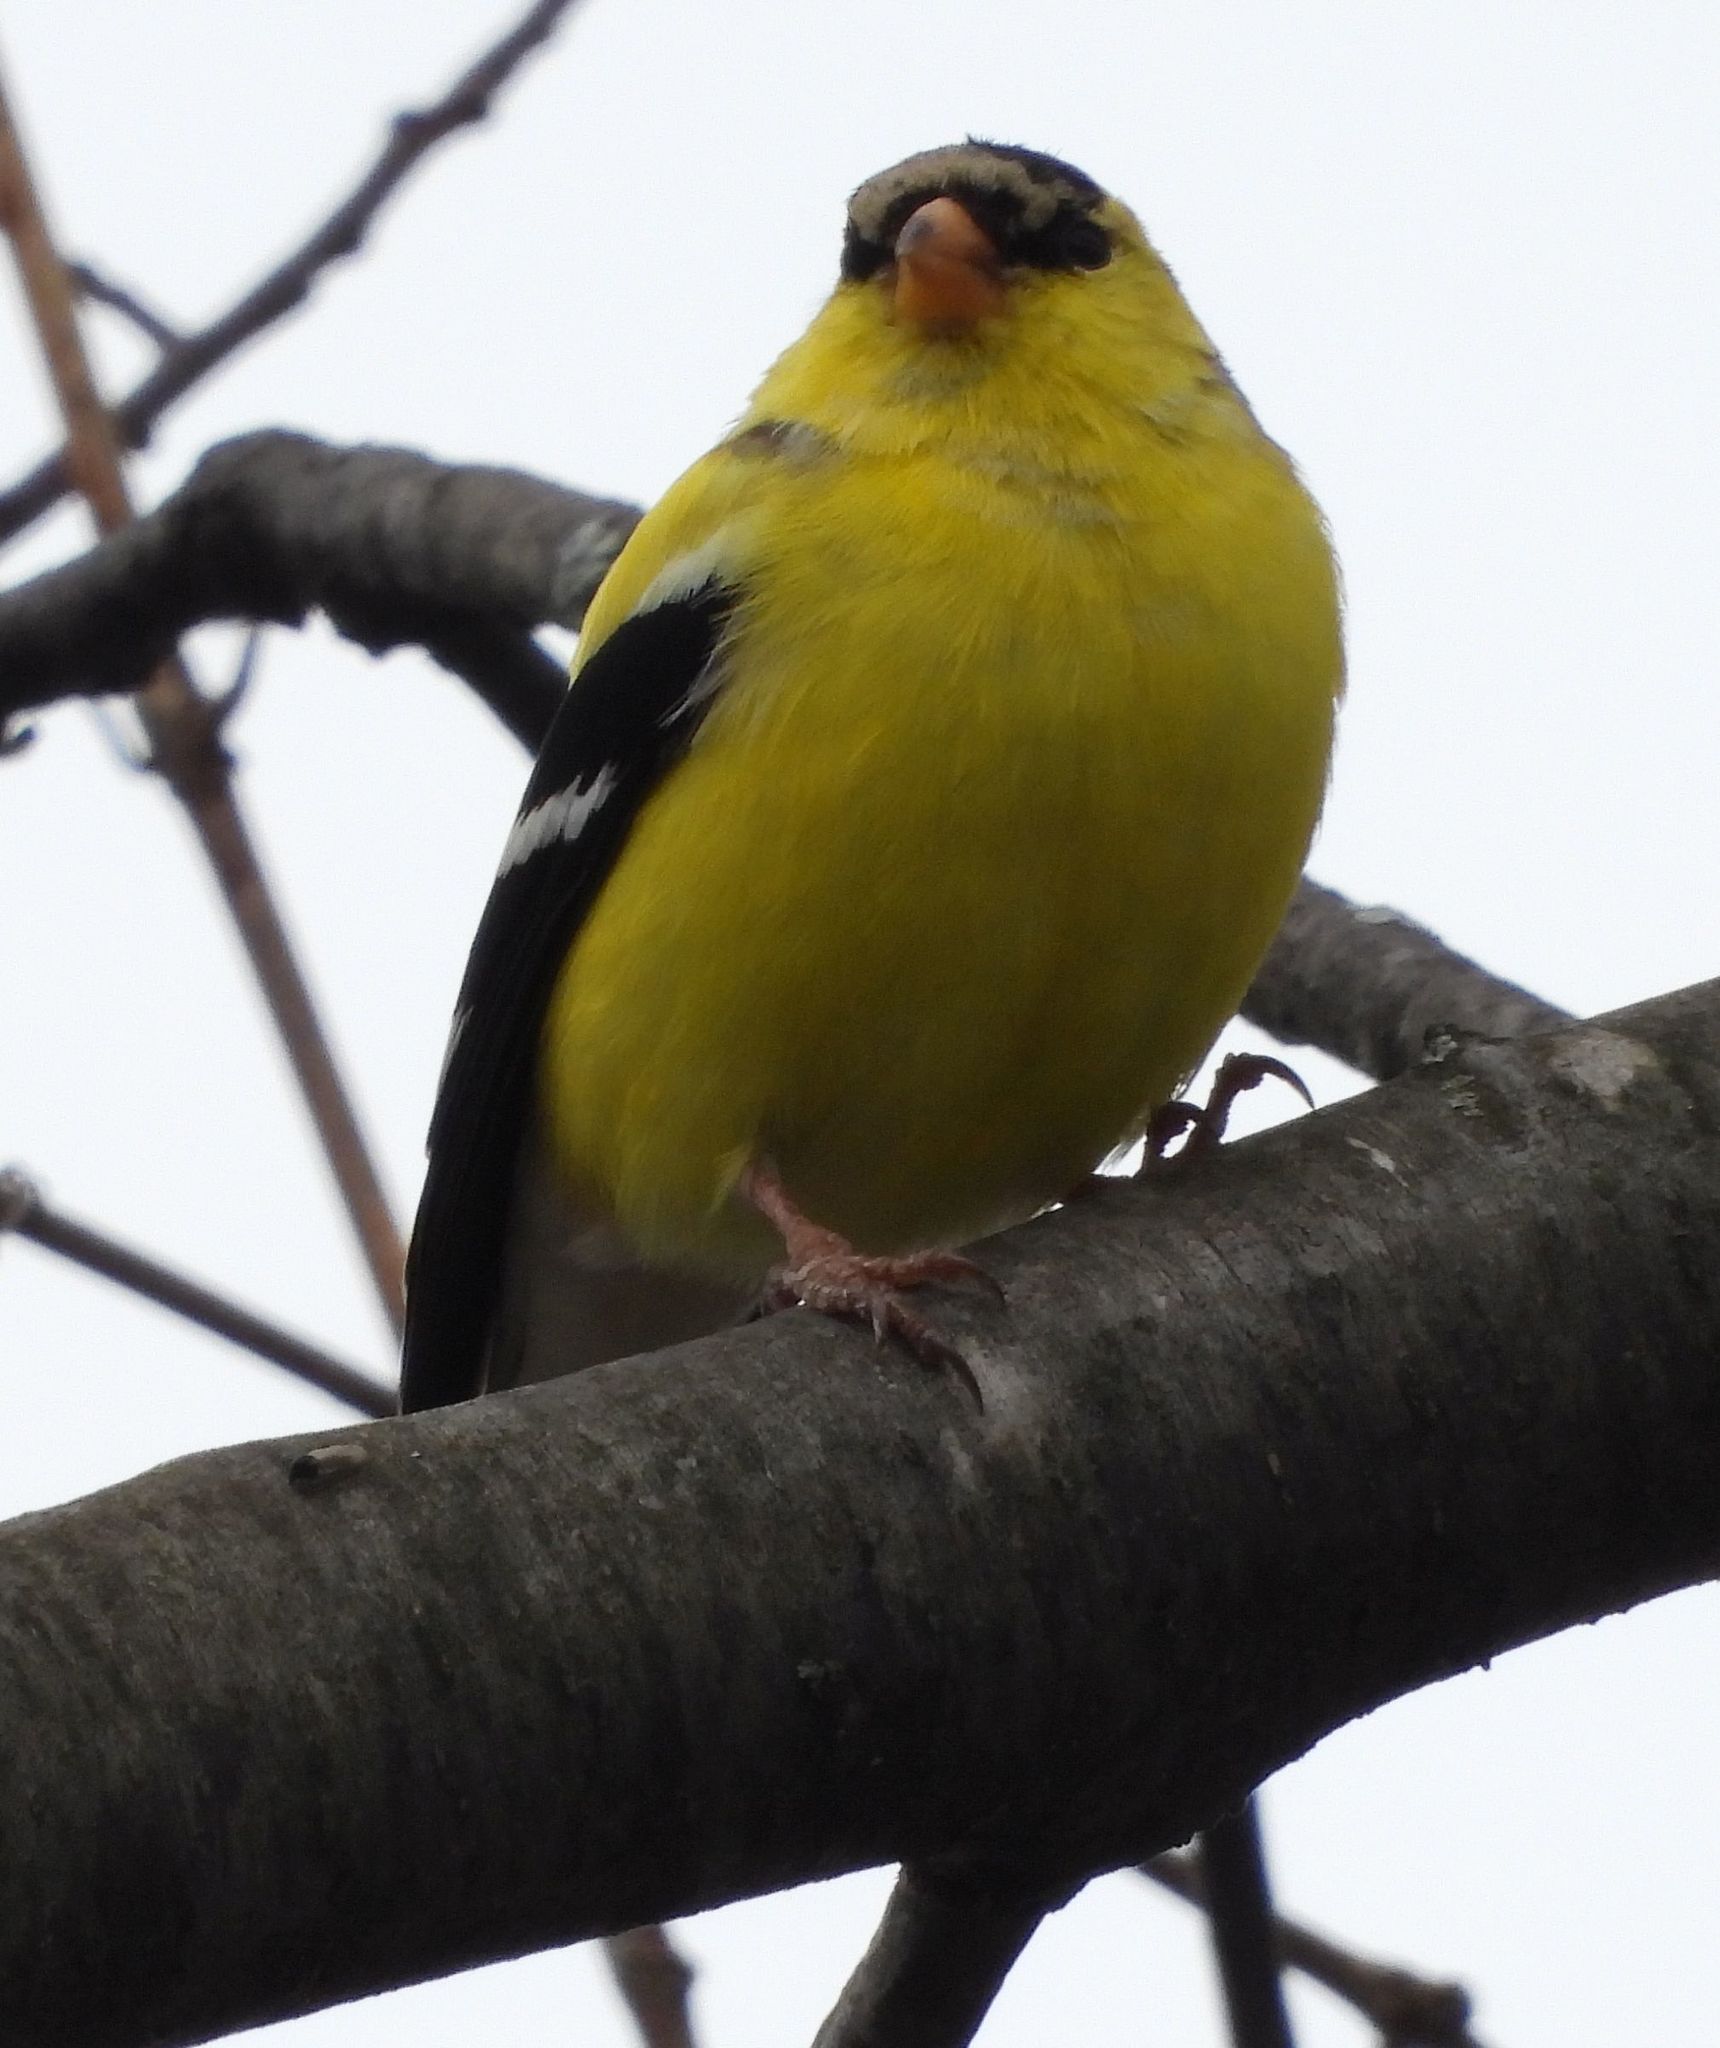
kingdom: Animalia
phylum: Chordata
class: Aves
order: Passeriformes
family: Fringillidae
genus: Spinus
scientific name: Spinus tristis
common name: American goldfinch
